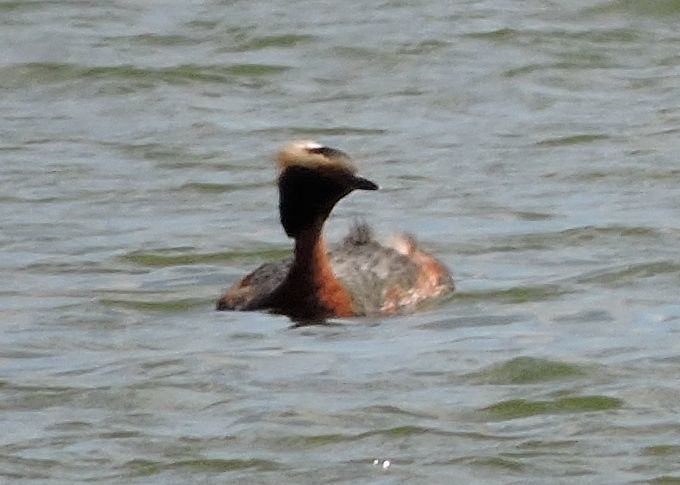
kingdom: Animalia
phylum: Chordata
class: Aves
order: Podicipediformes
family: Podicipedidae
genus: Podiceps
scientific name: Podiceps auritus
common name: Horned grebe
